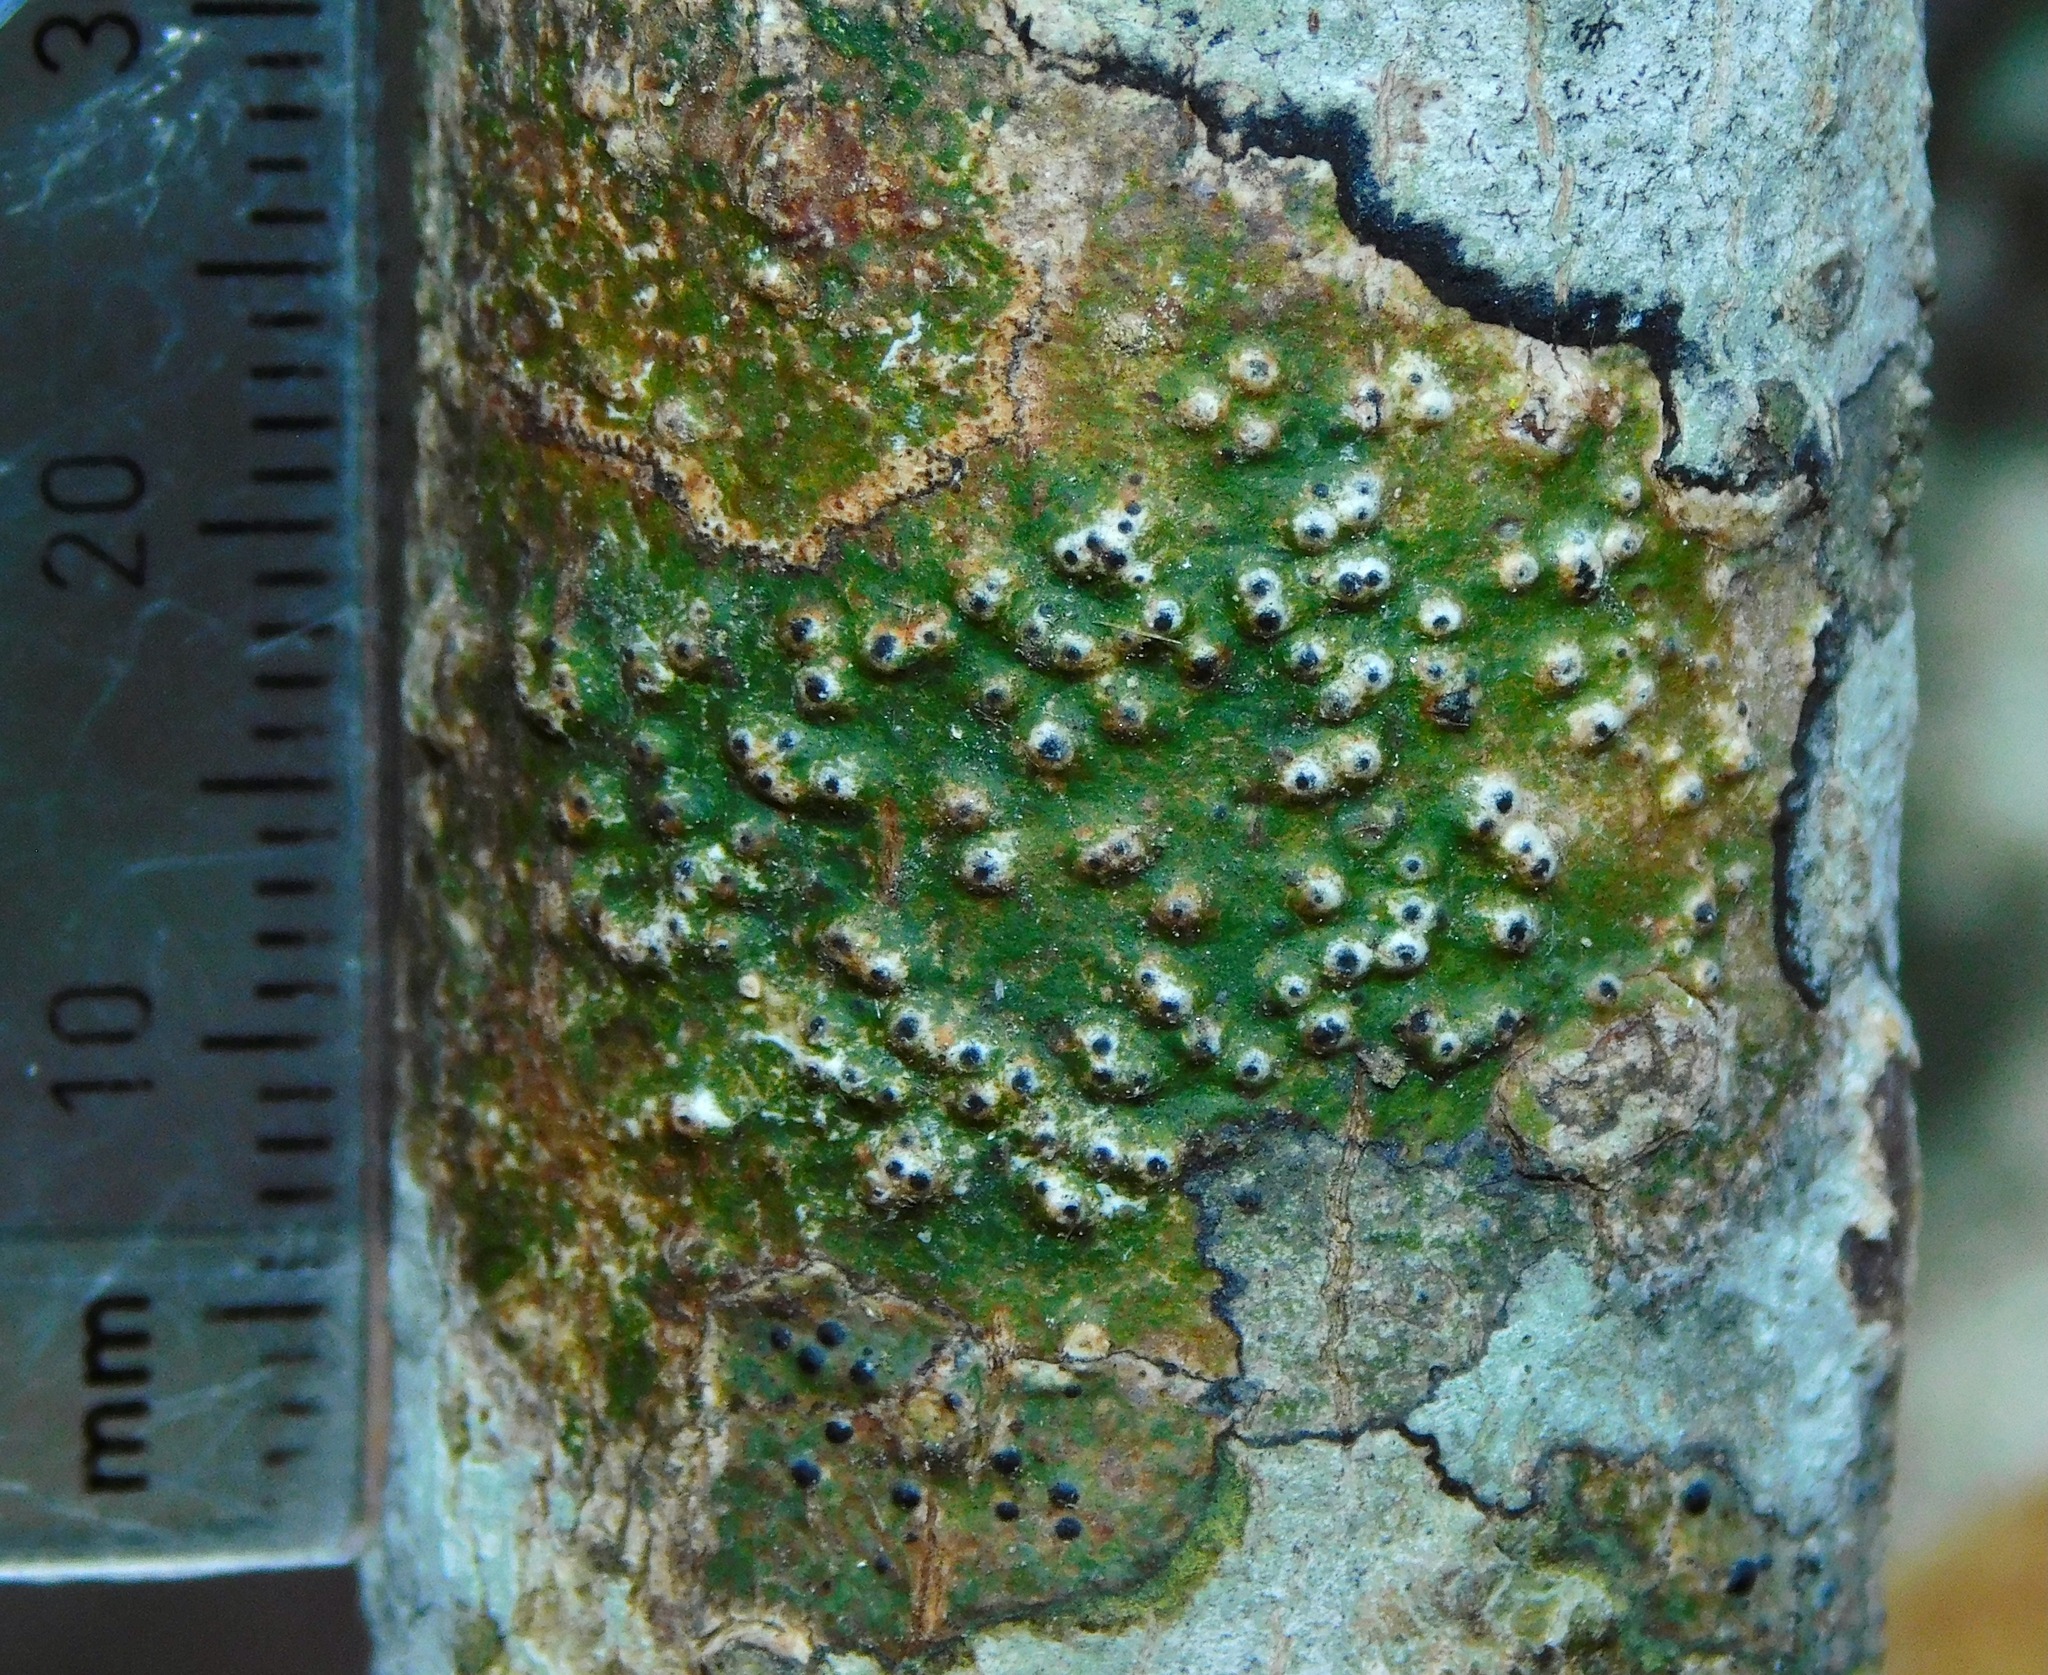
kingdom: Fungi
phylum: Ascomycota
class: Eurotiomycetes
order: Pyrenulales
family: Pyrenulaceae
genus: Anthracothecium
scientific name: Anthracothecium prasinum
